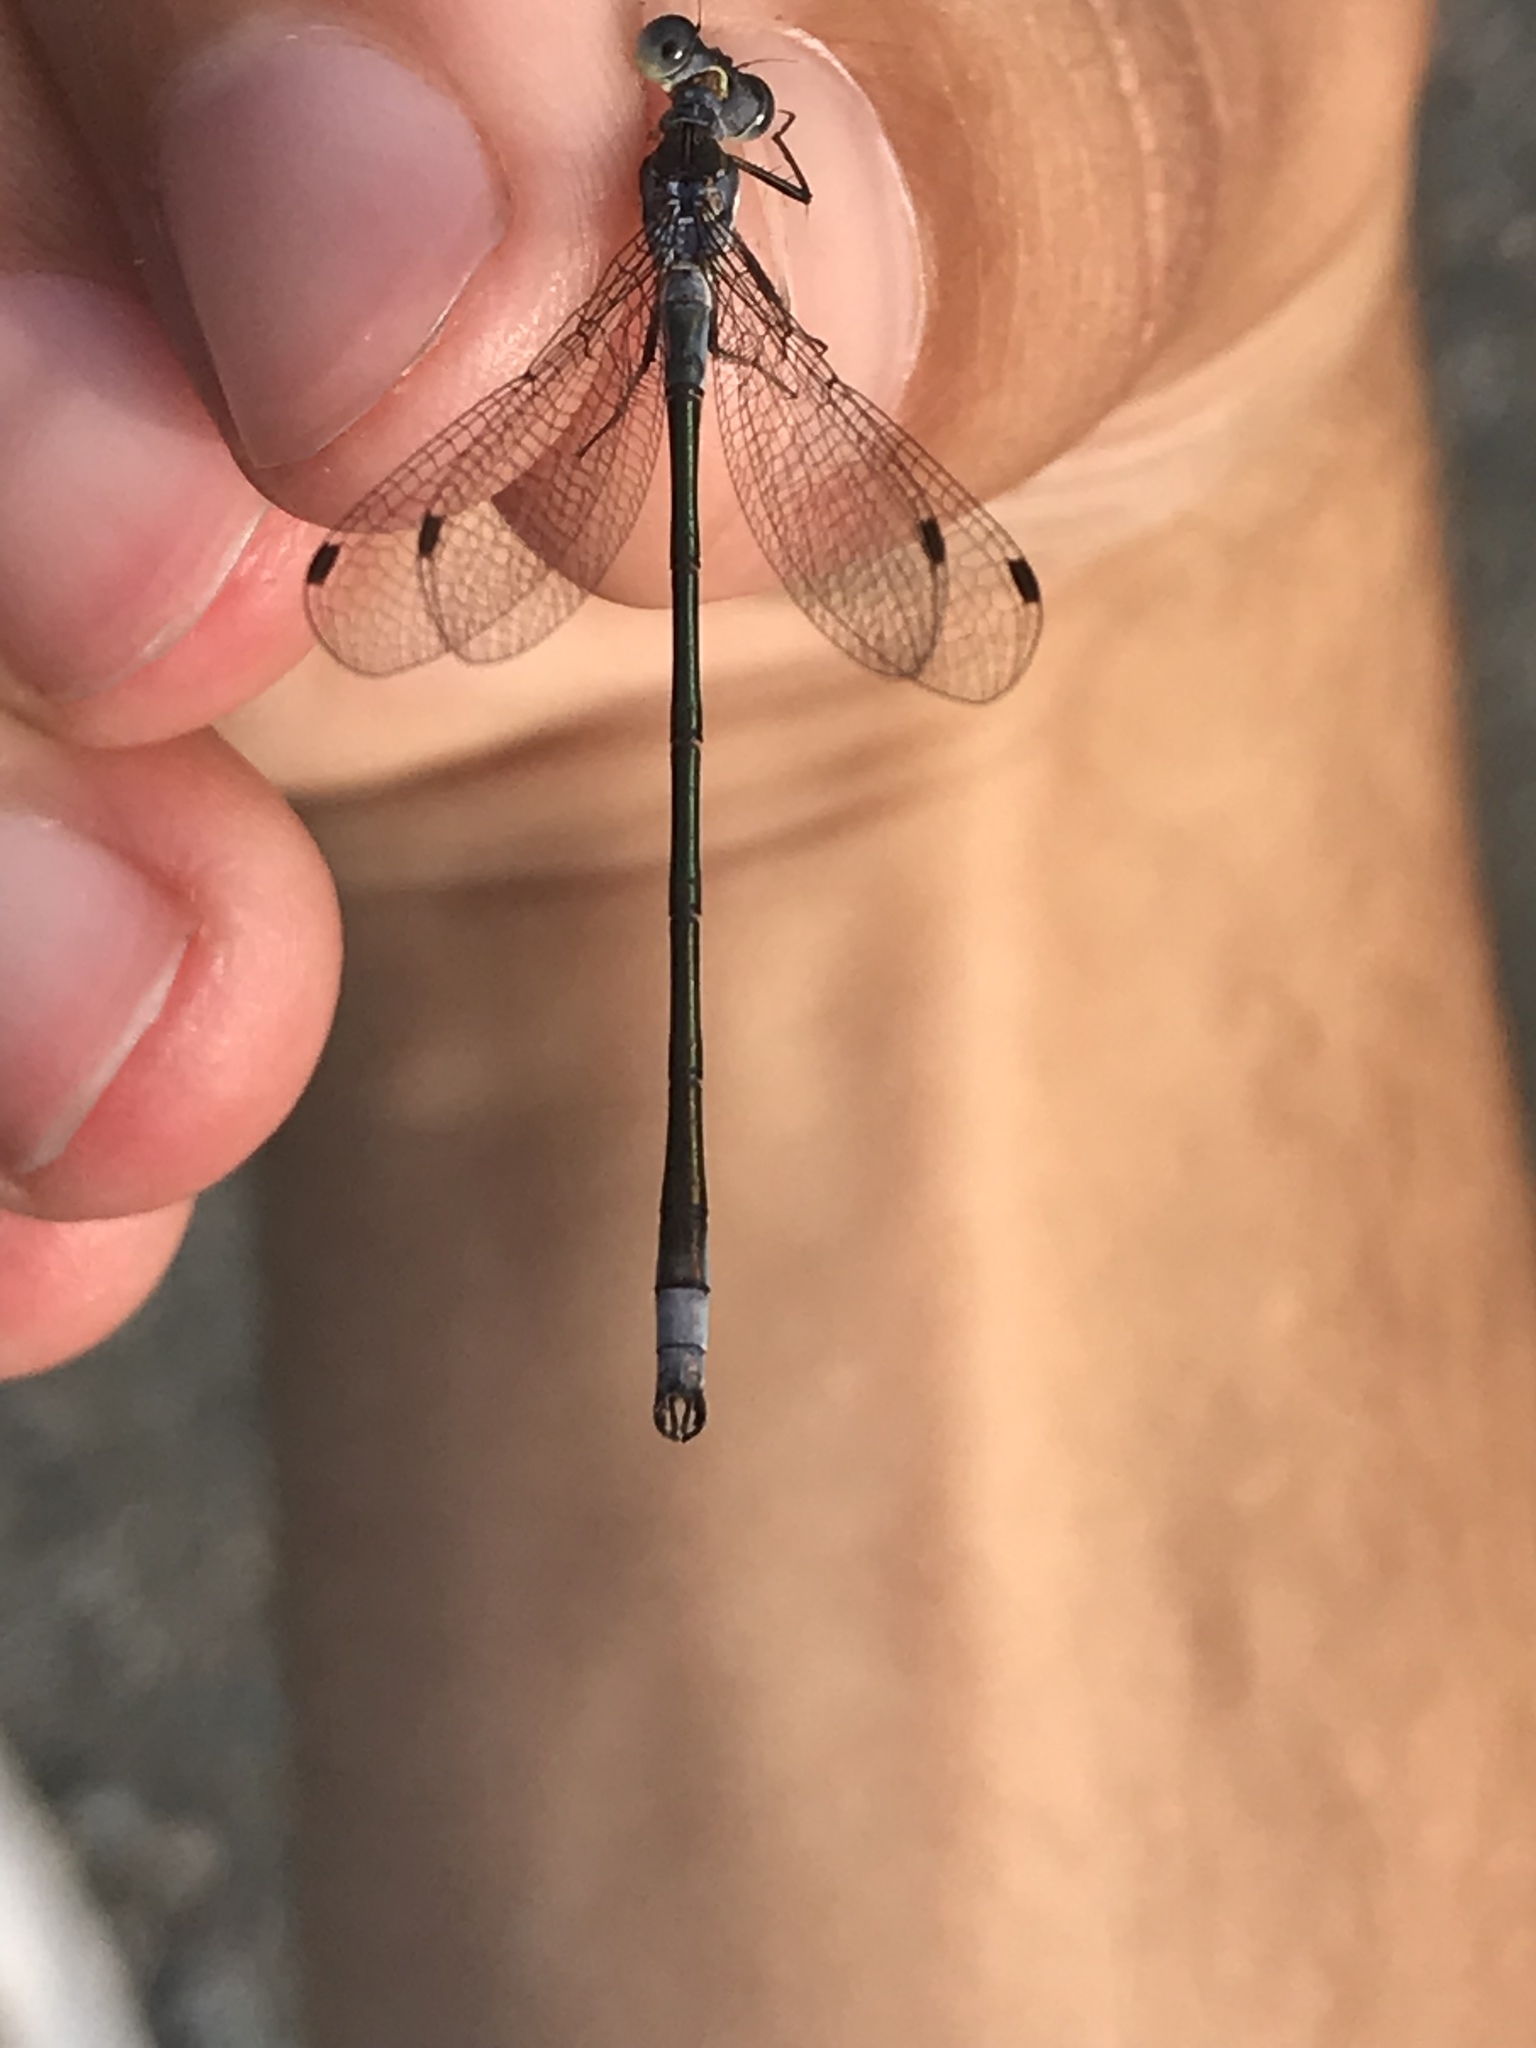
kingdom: Animalia
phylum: Arthropoda
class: Insecta
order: Odonata
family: Lestidae
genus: Lestes
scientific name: Lestes disjunctus
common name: Northern spreadwing
